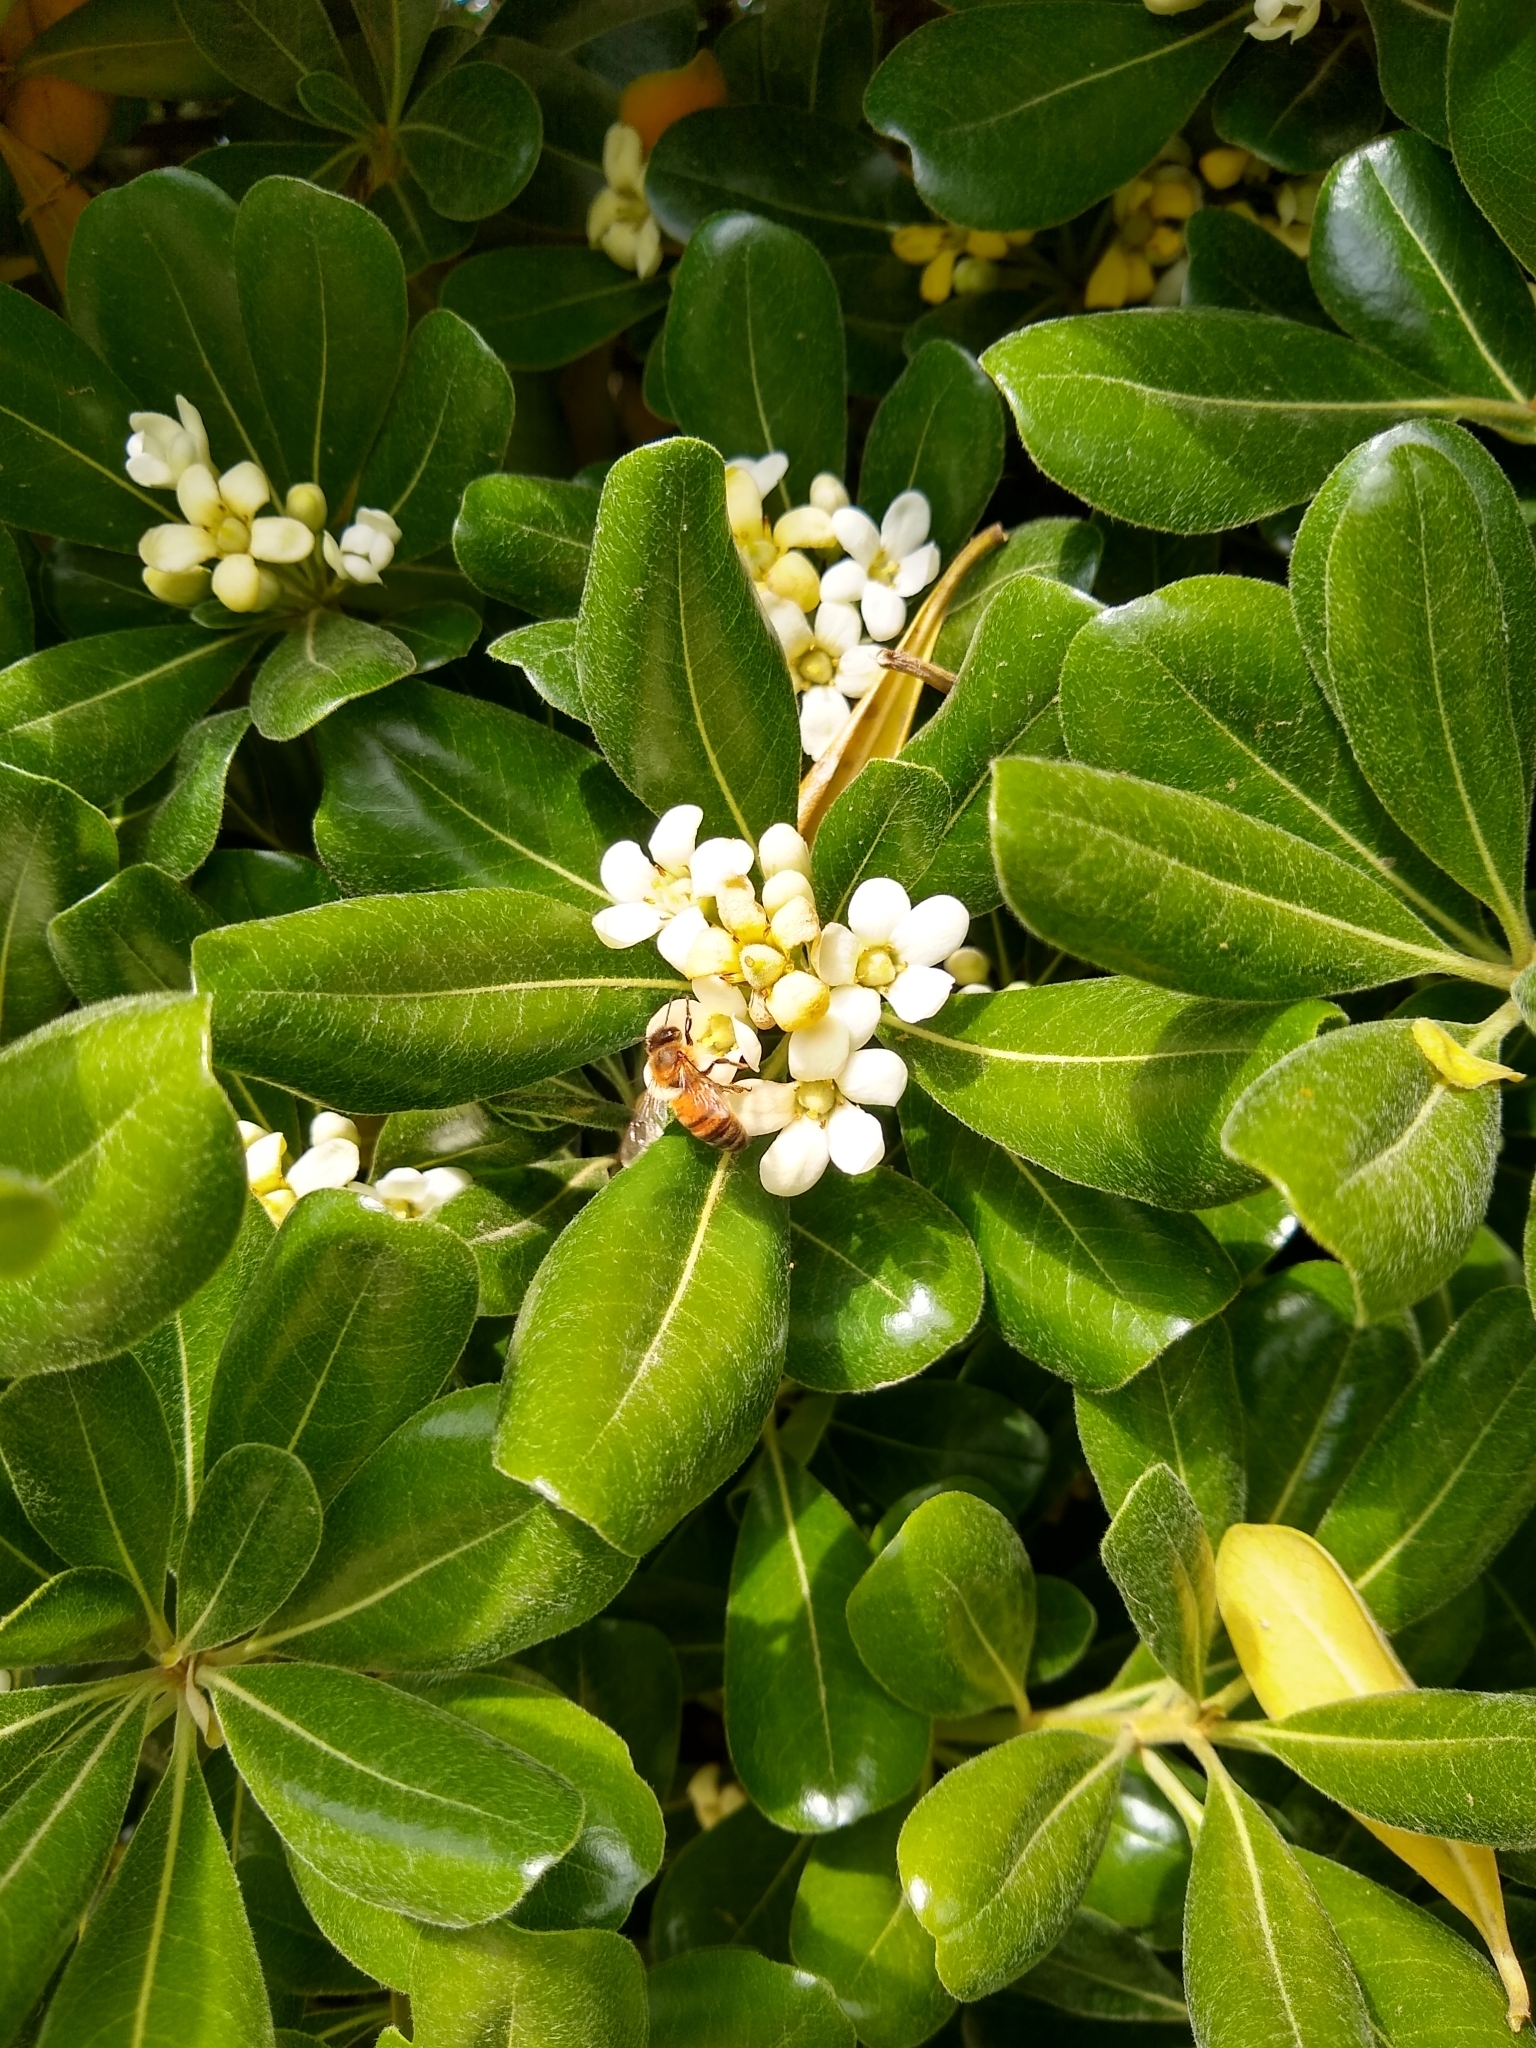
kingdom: Animalia
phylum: Arthropoda
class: Insecta
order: Hymenoptera
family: Apidae
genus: Apis
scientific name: Apis mellifera
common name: Honey bee
